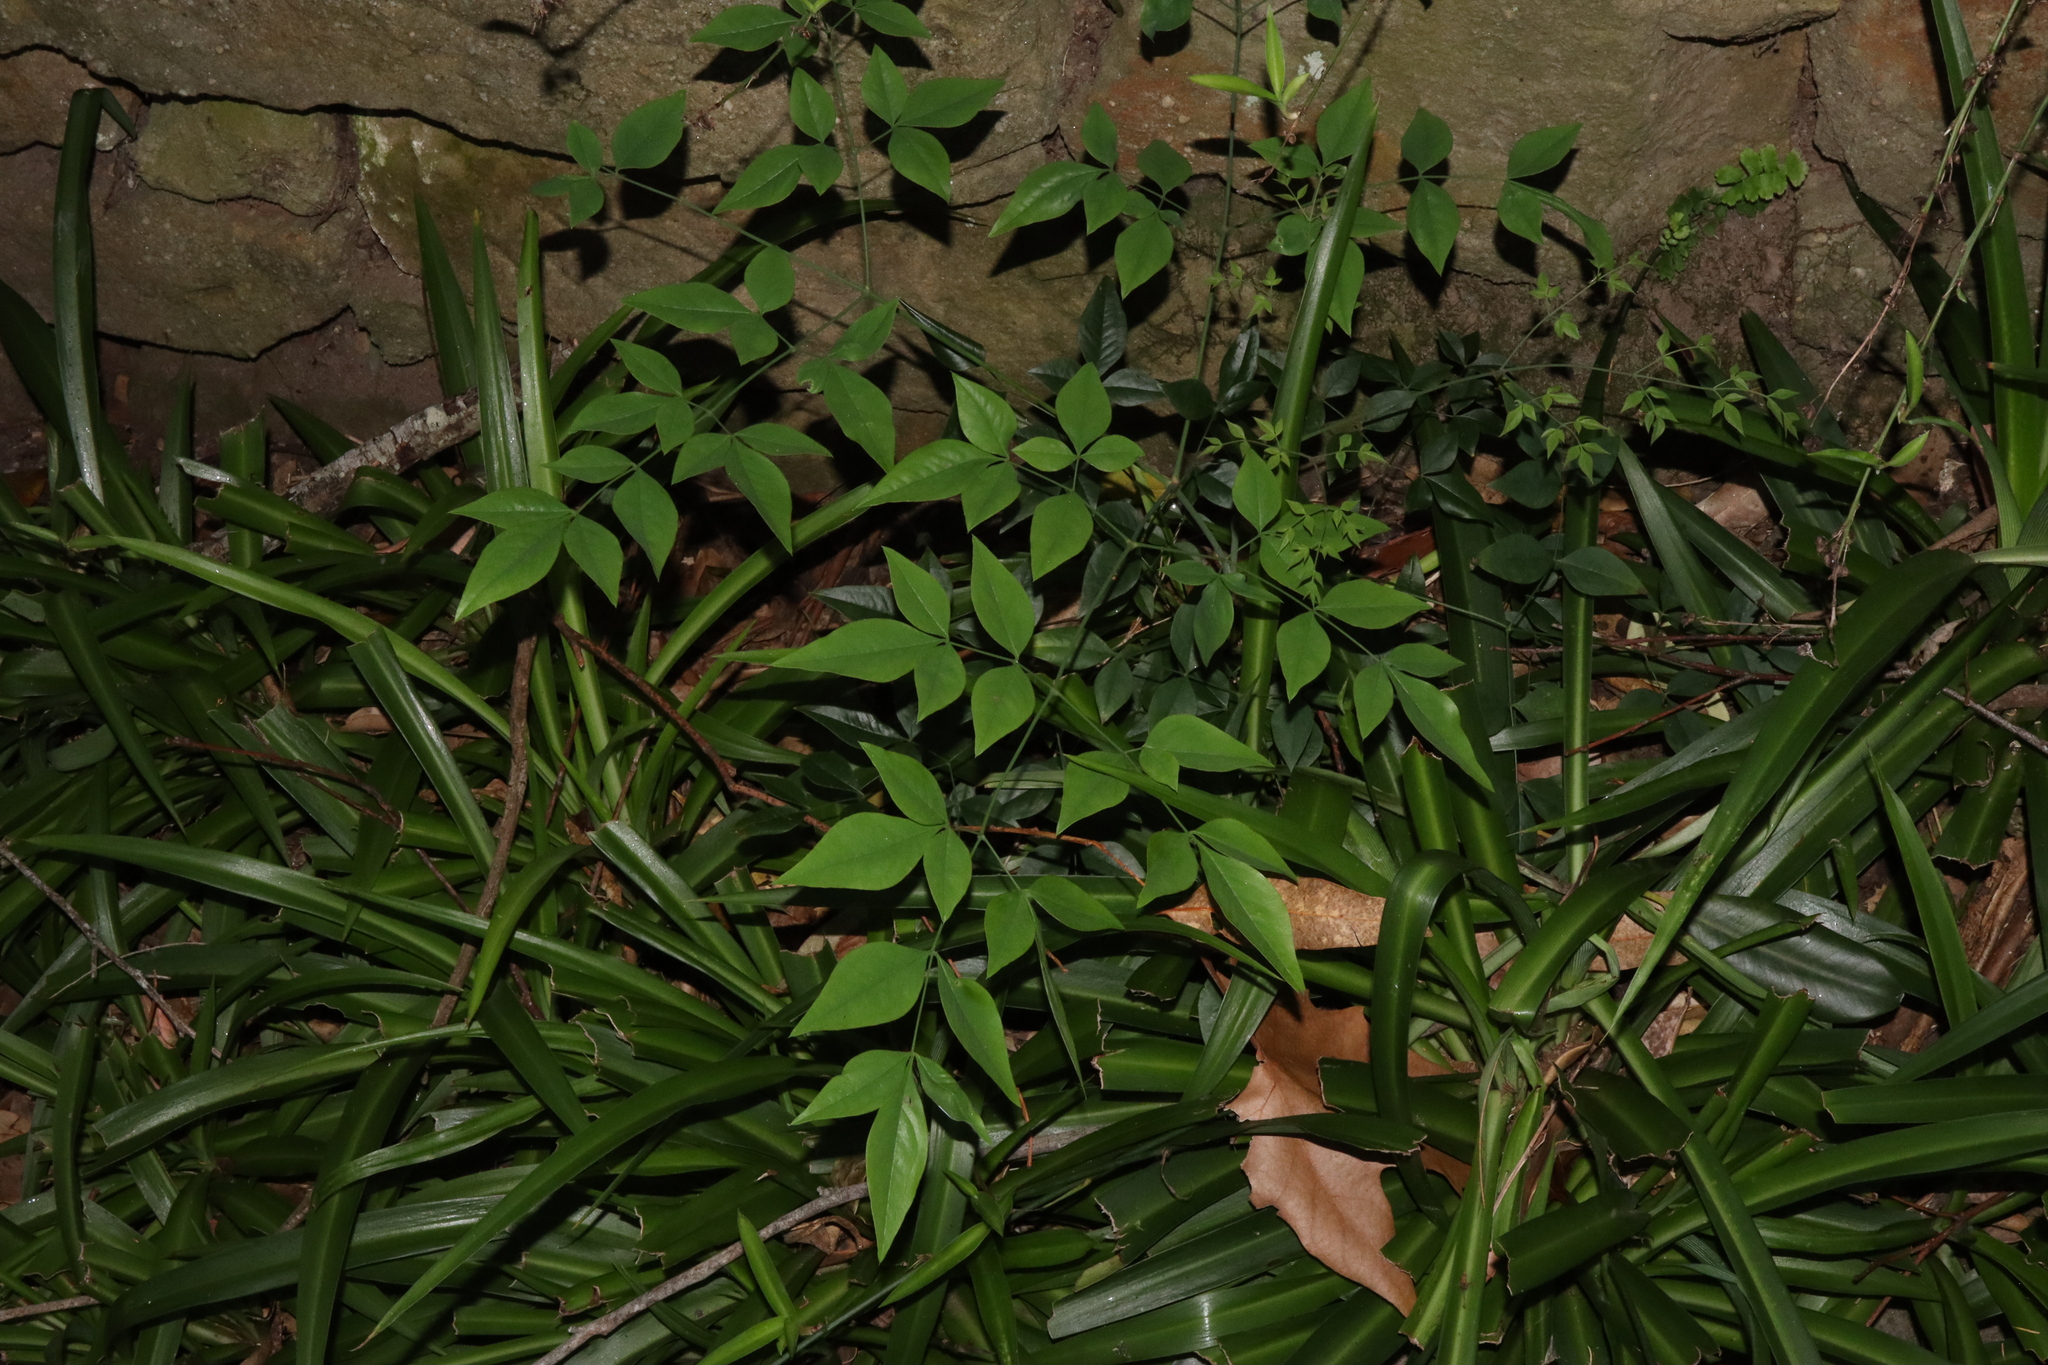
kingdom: Plantae
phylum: Tracheophyta
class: Magnoliopsida
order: Ranunculales
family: Berberidaceae
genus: Nandina
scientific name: Nandina domestica
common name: Sacred bamboo
